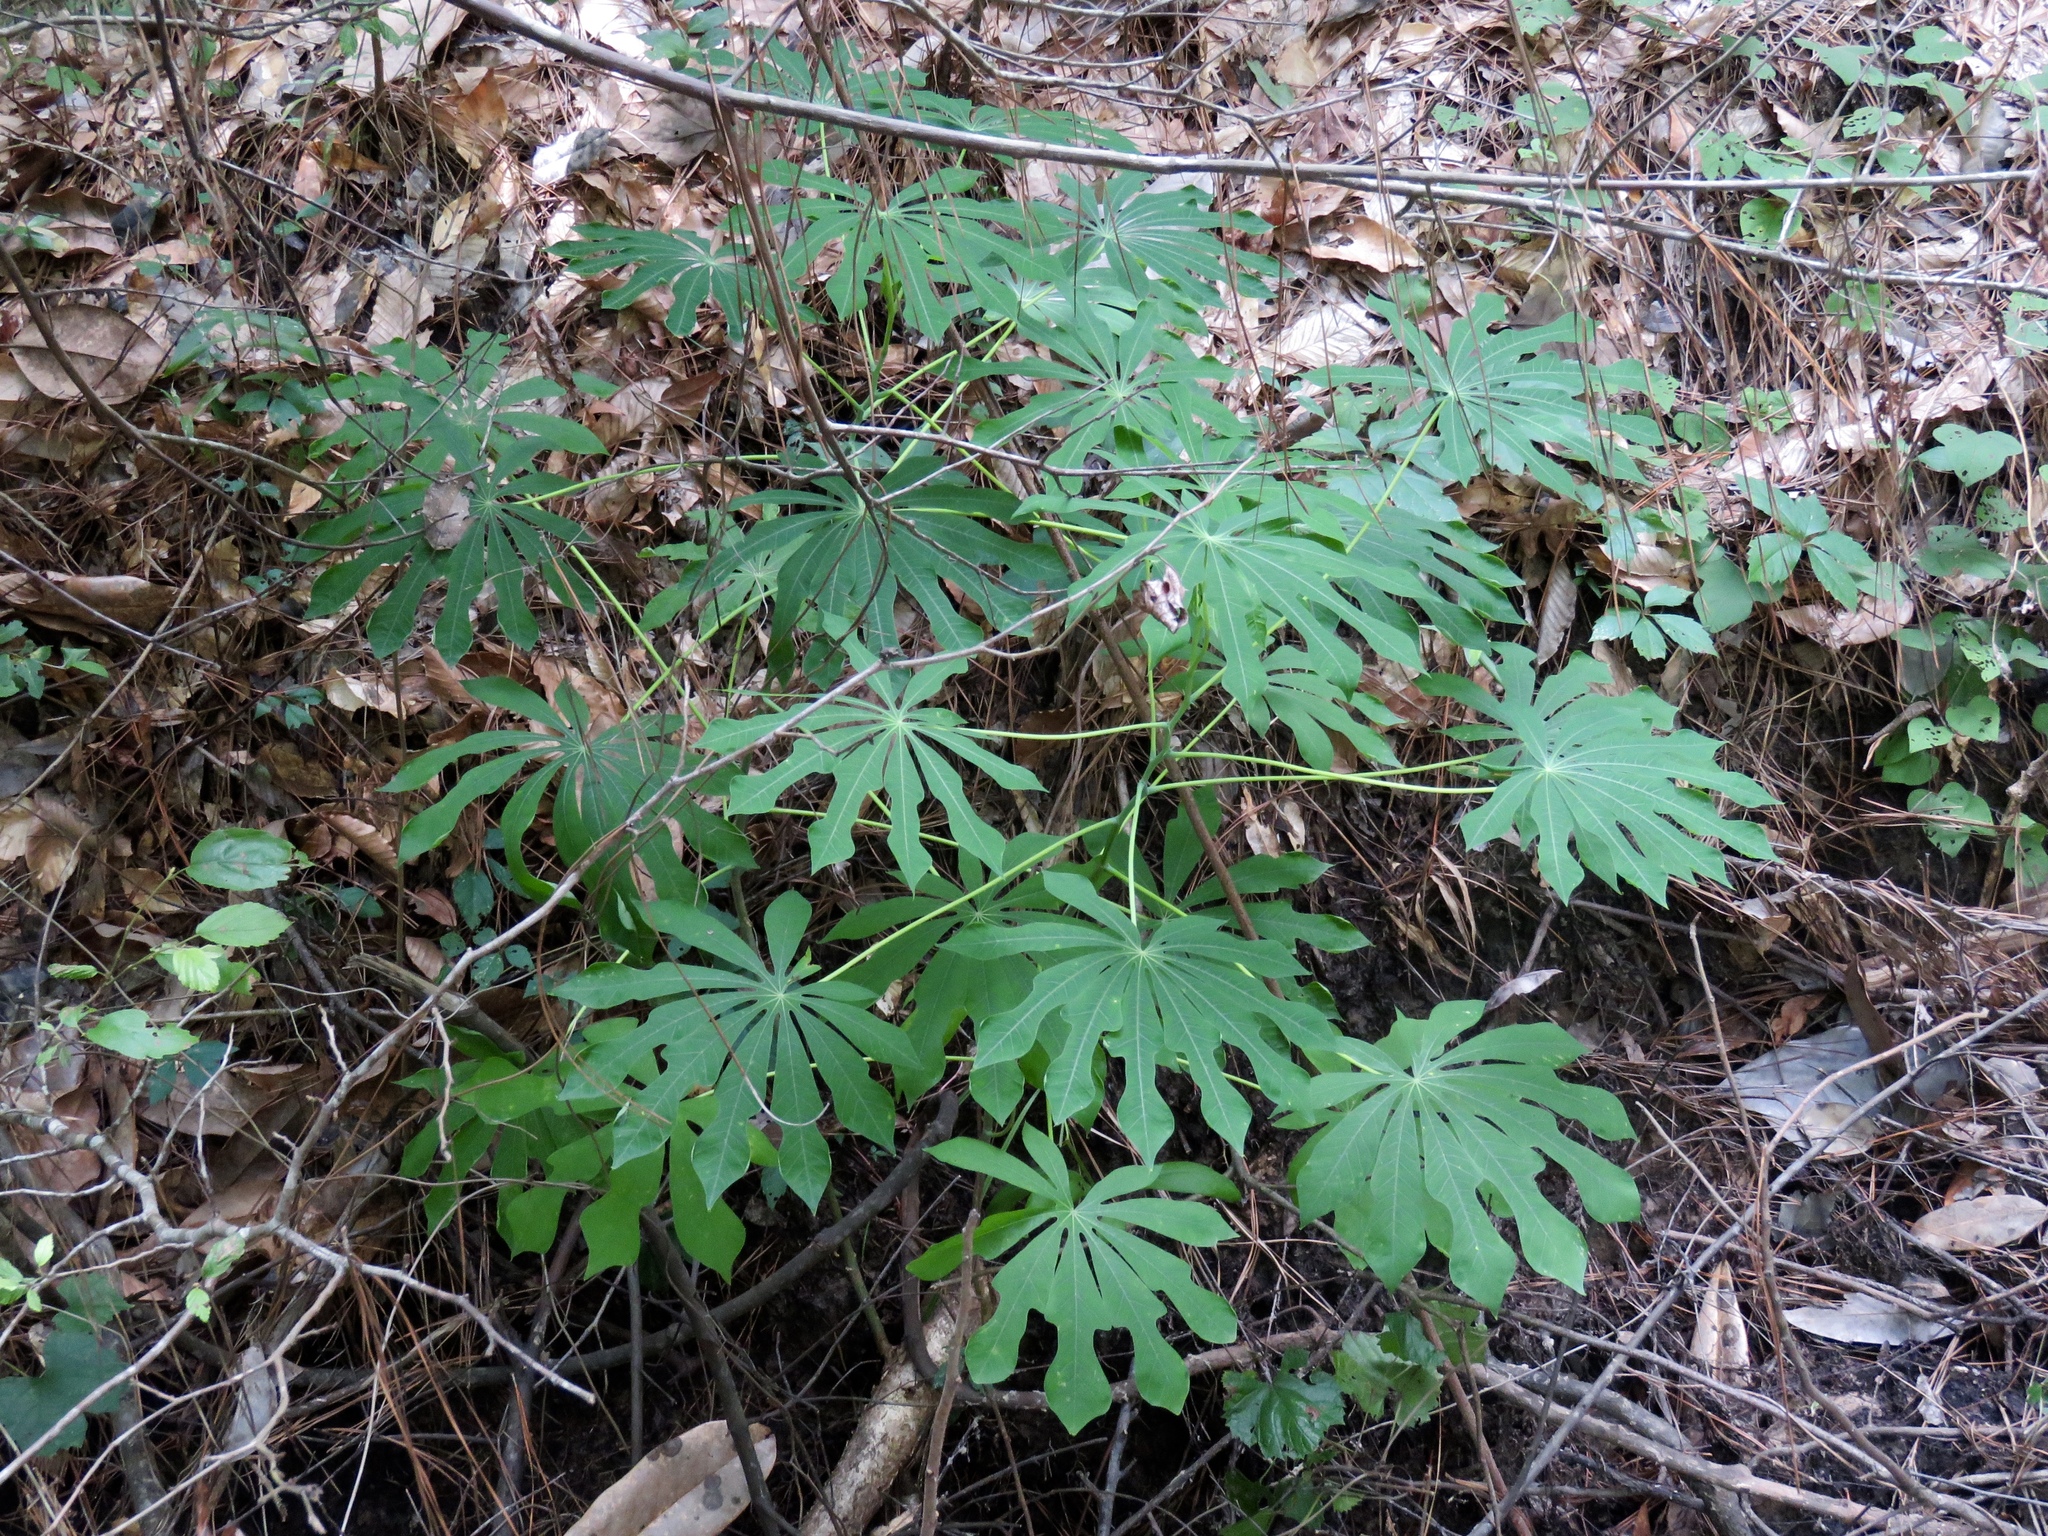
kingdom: Plantae
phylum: Tracheophyta
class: Magnoliopsida
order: Malpighiales
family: Euphorbiaceae
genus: Manihot
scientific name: Manihot grahamii
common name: Graham's manihot
